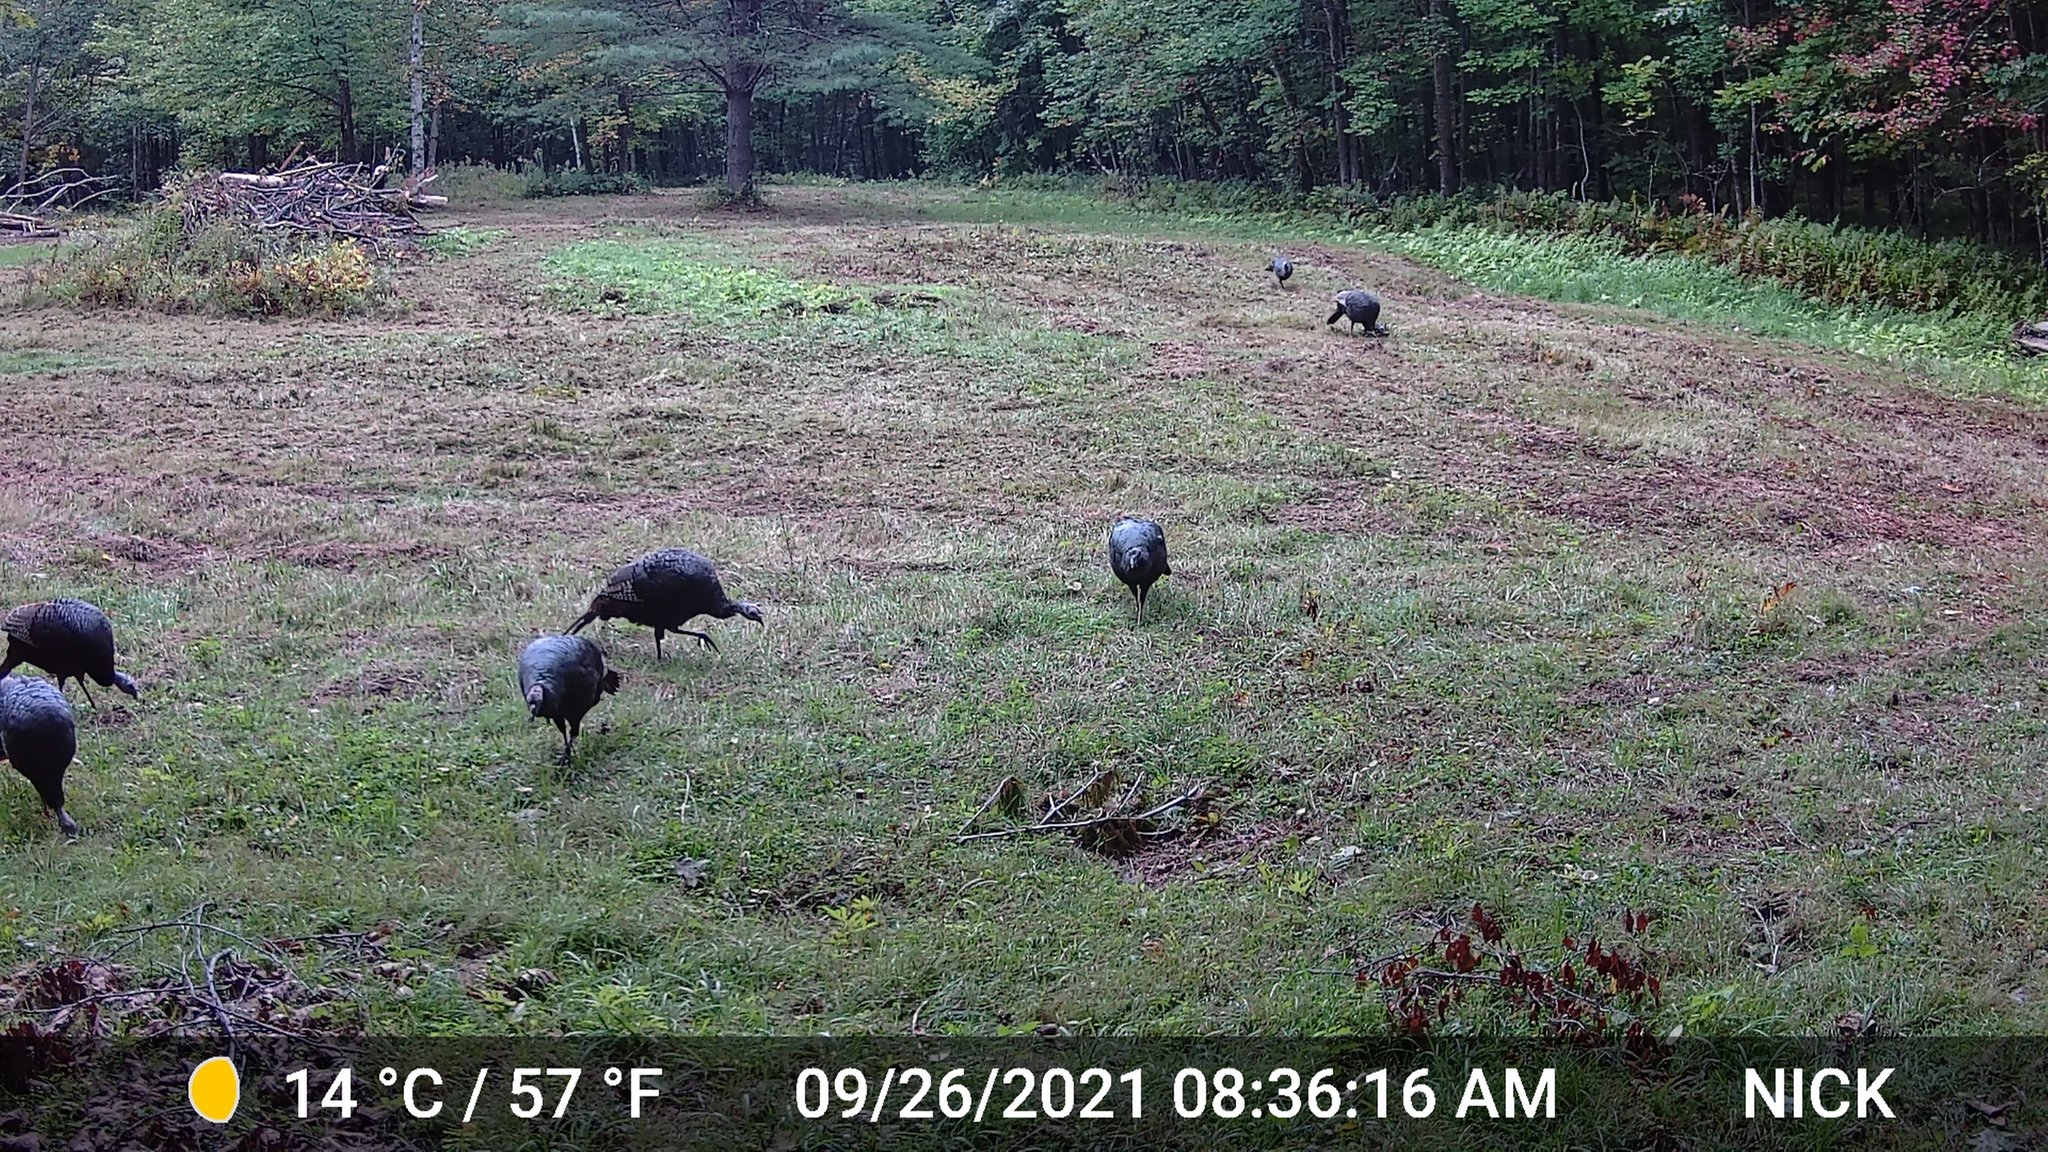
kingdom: Animalia
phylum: Chordata
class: Aves
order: Galliformes
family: Phasianidae
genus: Meleagris
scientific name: Meleagris gallopavo
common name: Wild turkey
